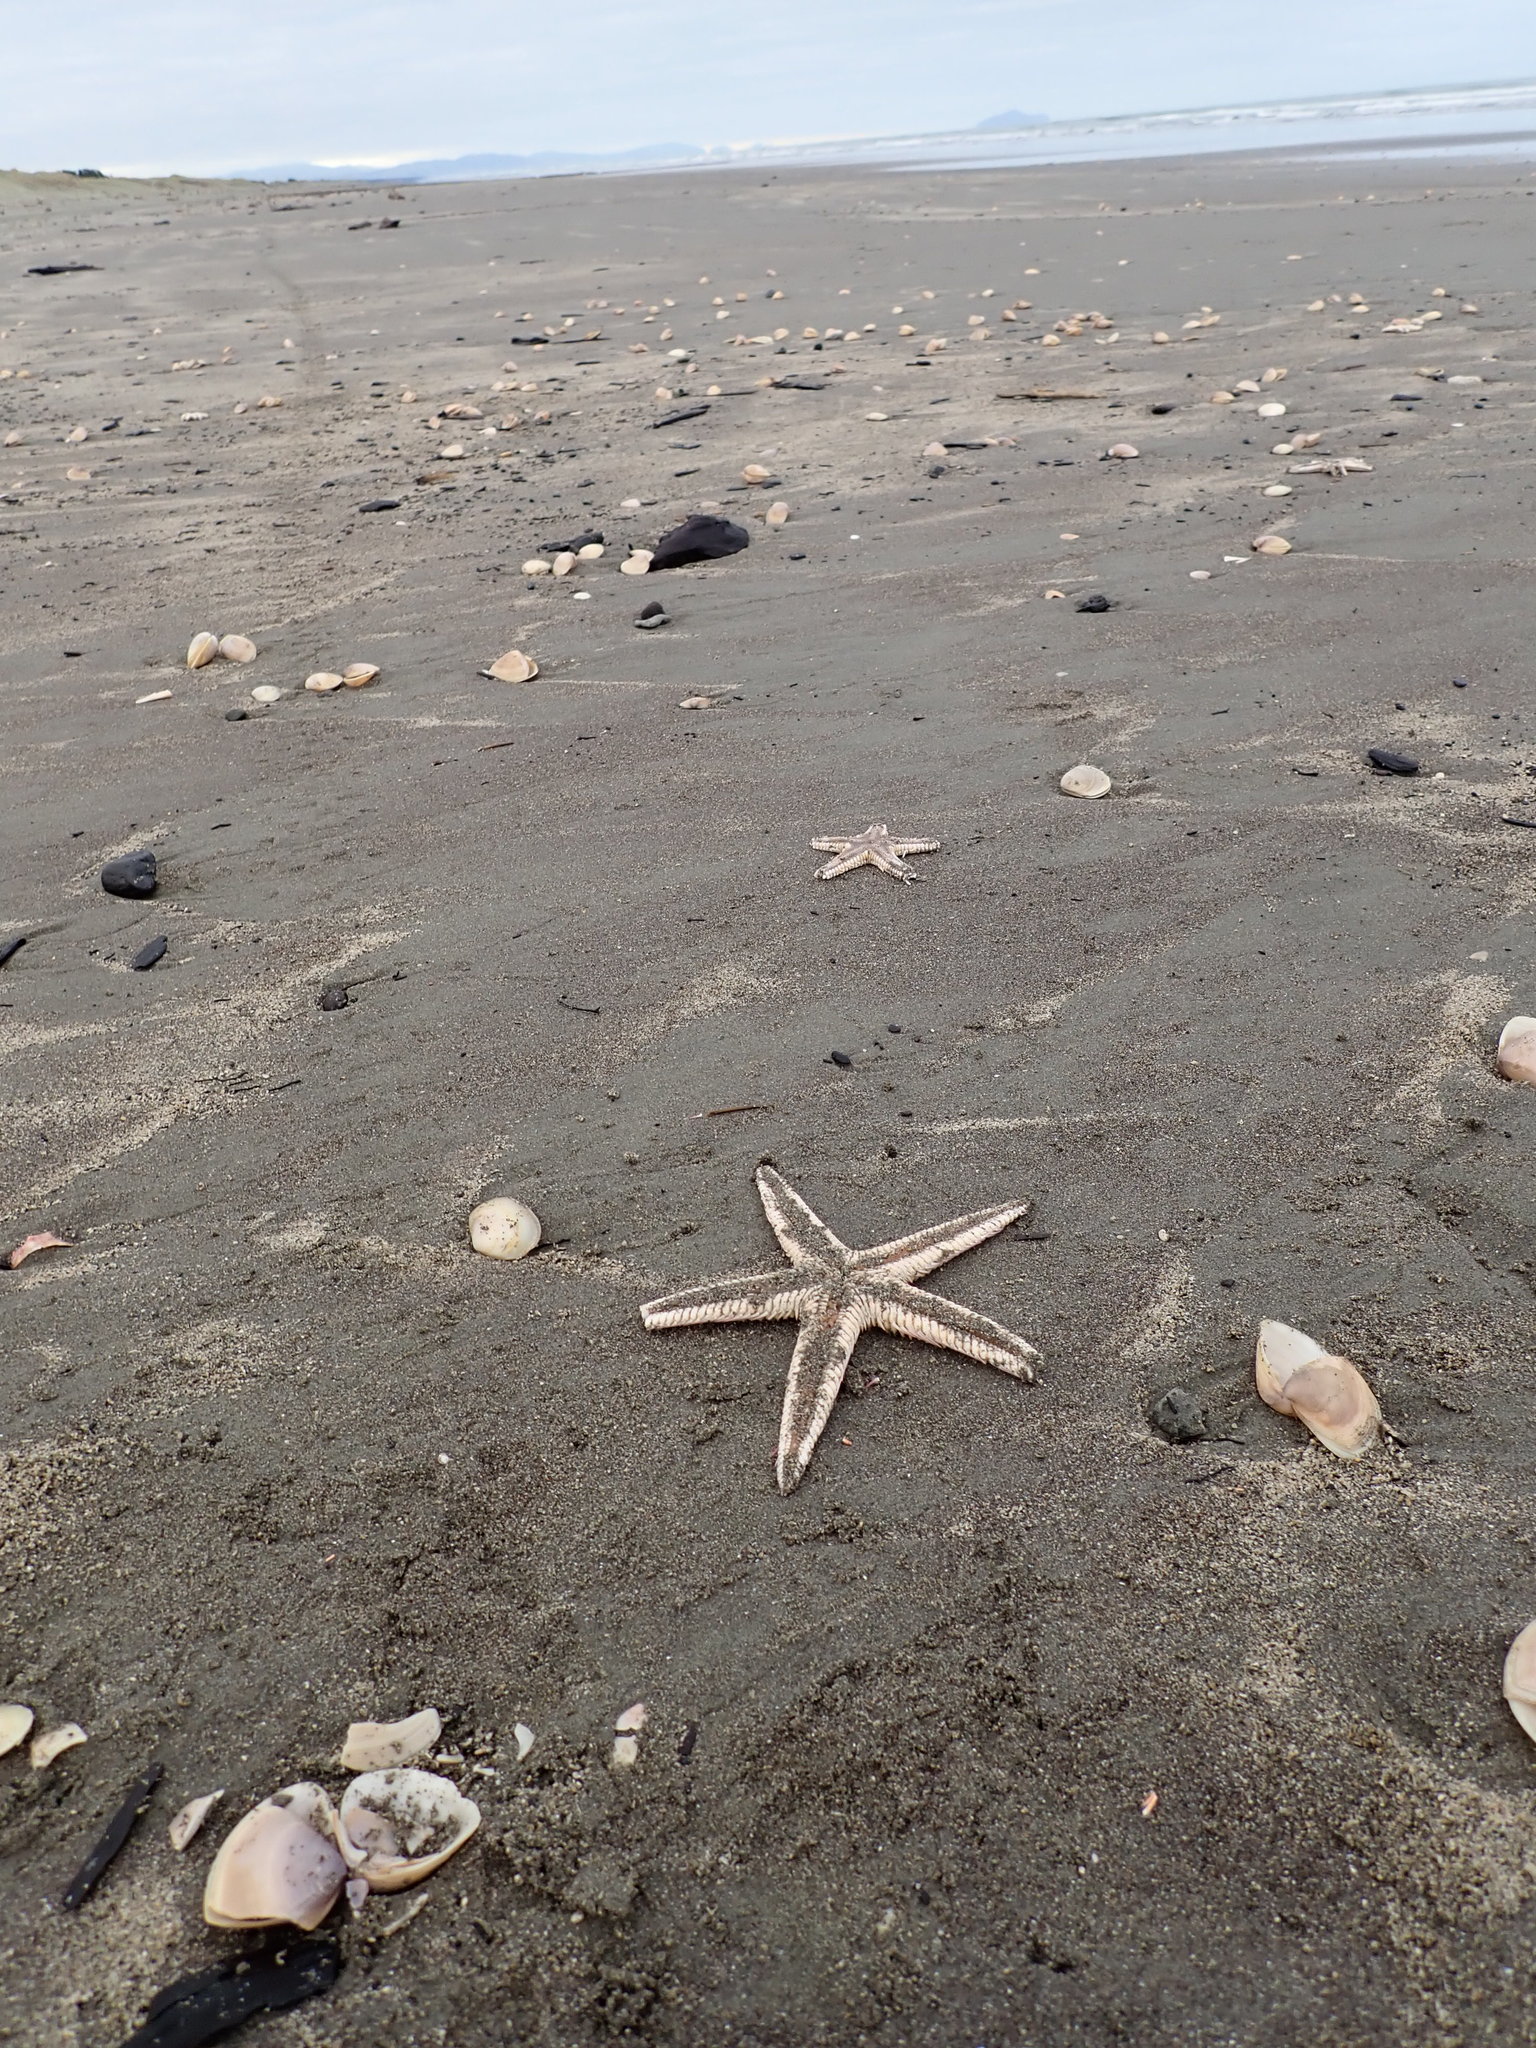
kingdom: Animalia
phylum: Echinodermata
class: Asteroidea
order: Paxillosida
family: Astropectinidae
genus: Astropecten
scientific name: Astropecten polyacanthus
